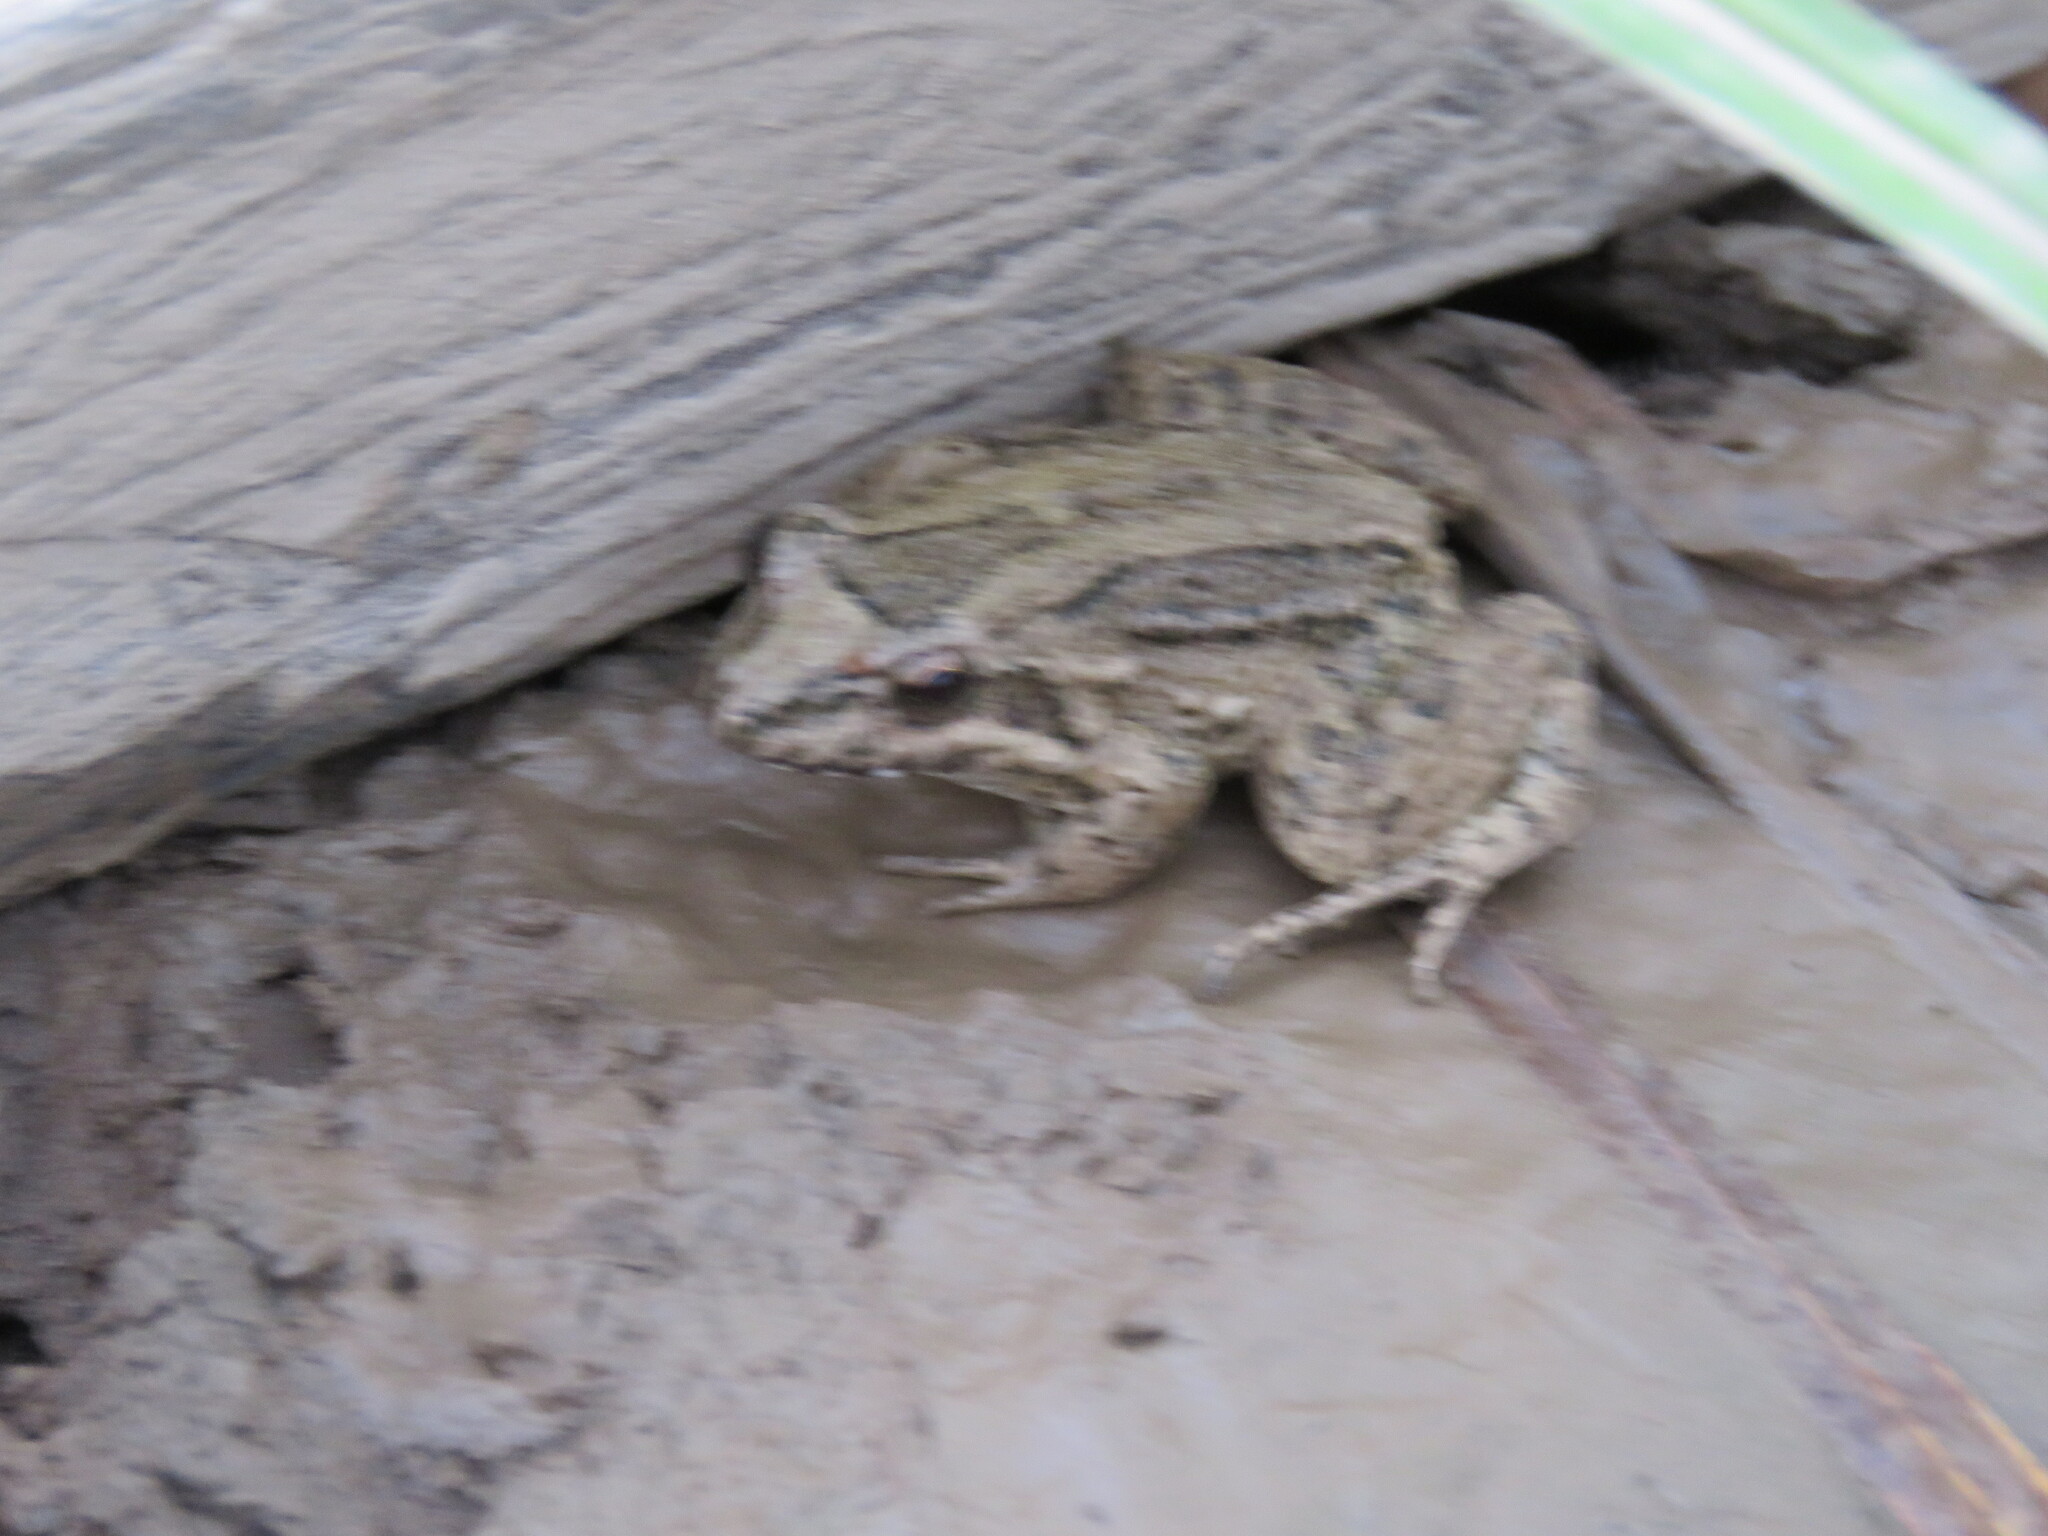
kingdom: Animalia
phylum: Chordata
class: Amphibia
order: Anura
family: Leptodactylidae
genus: Leptodactylus
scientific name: Leptodactylus petersii
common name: Peters' thin-toed frog
